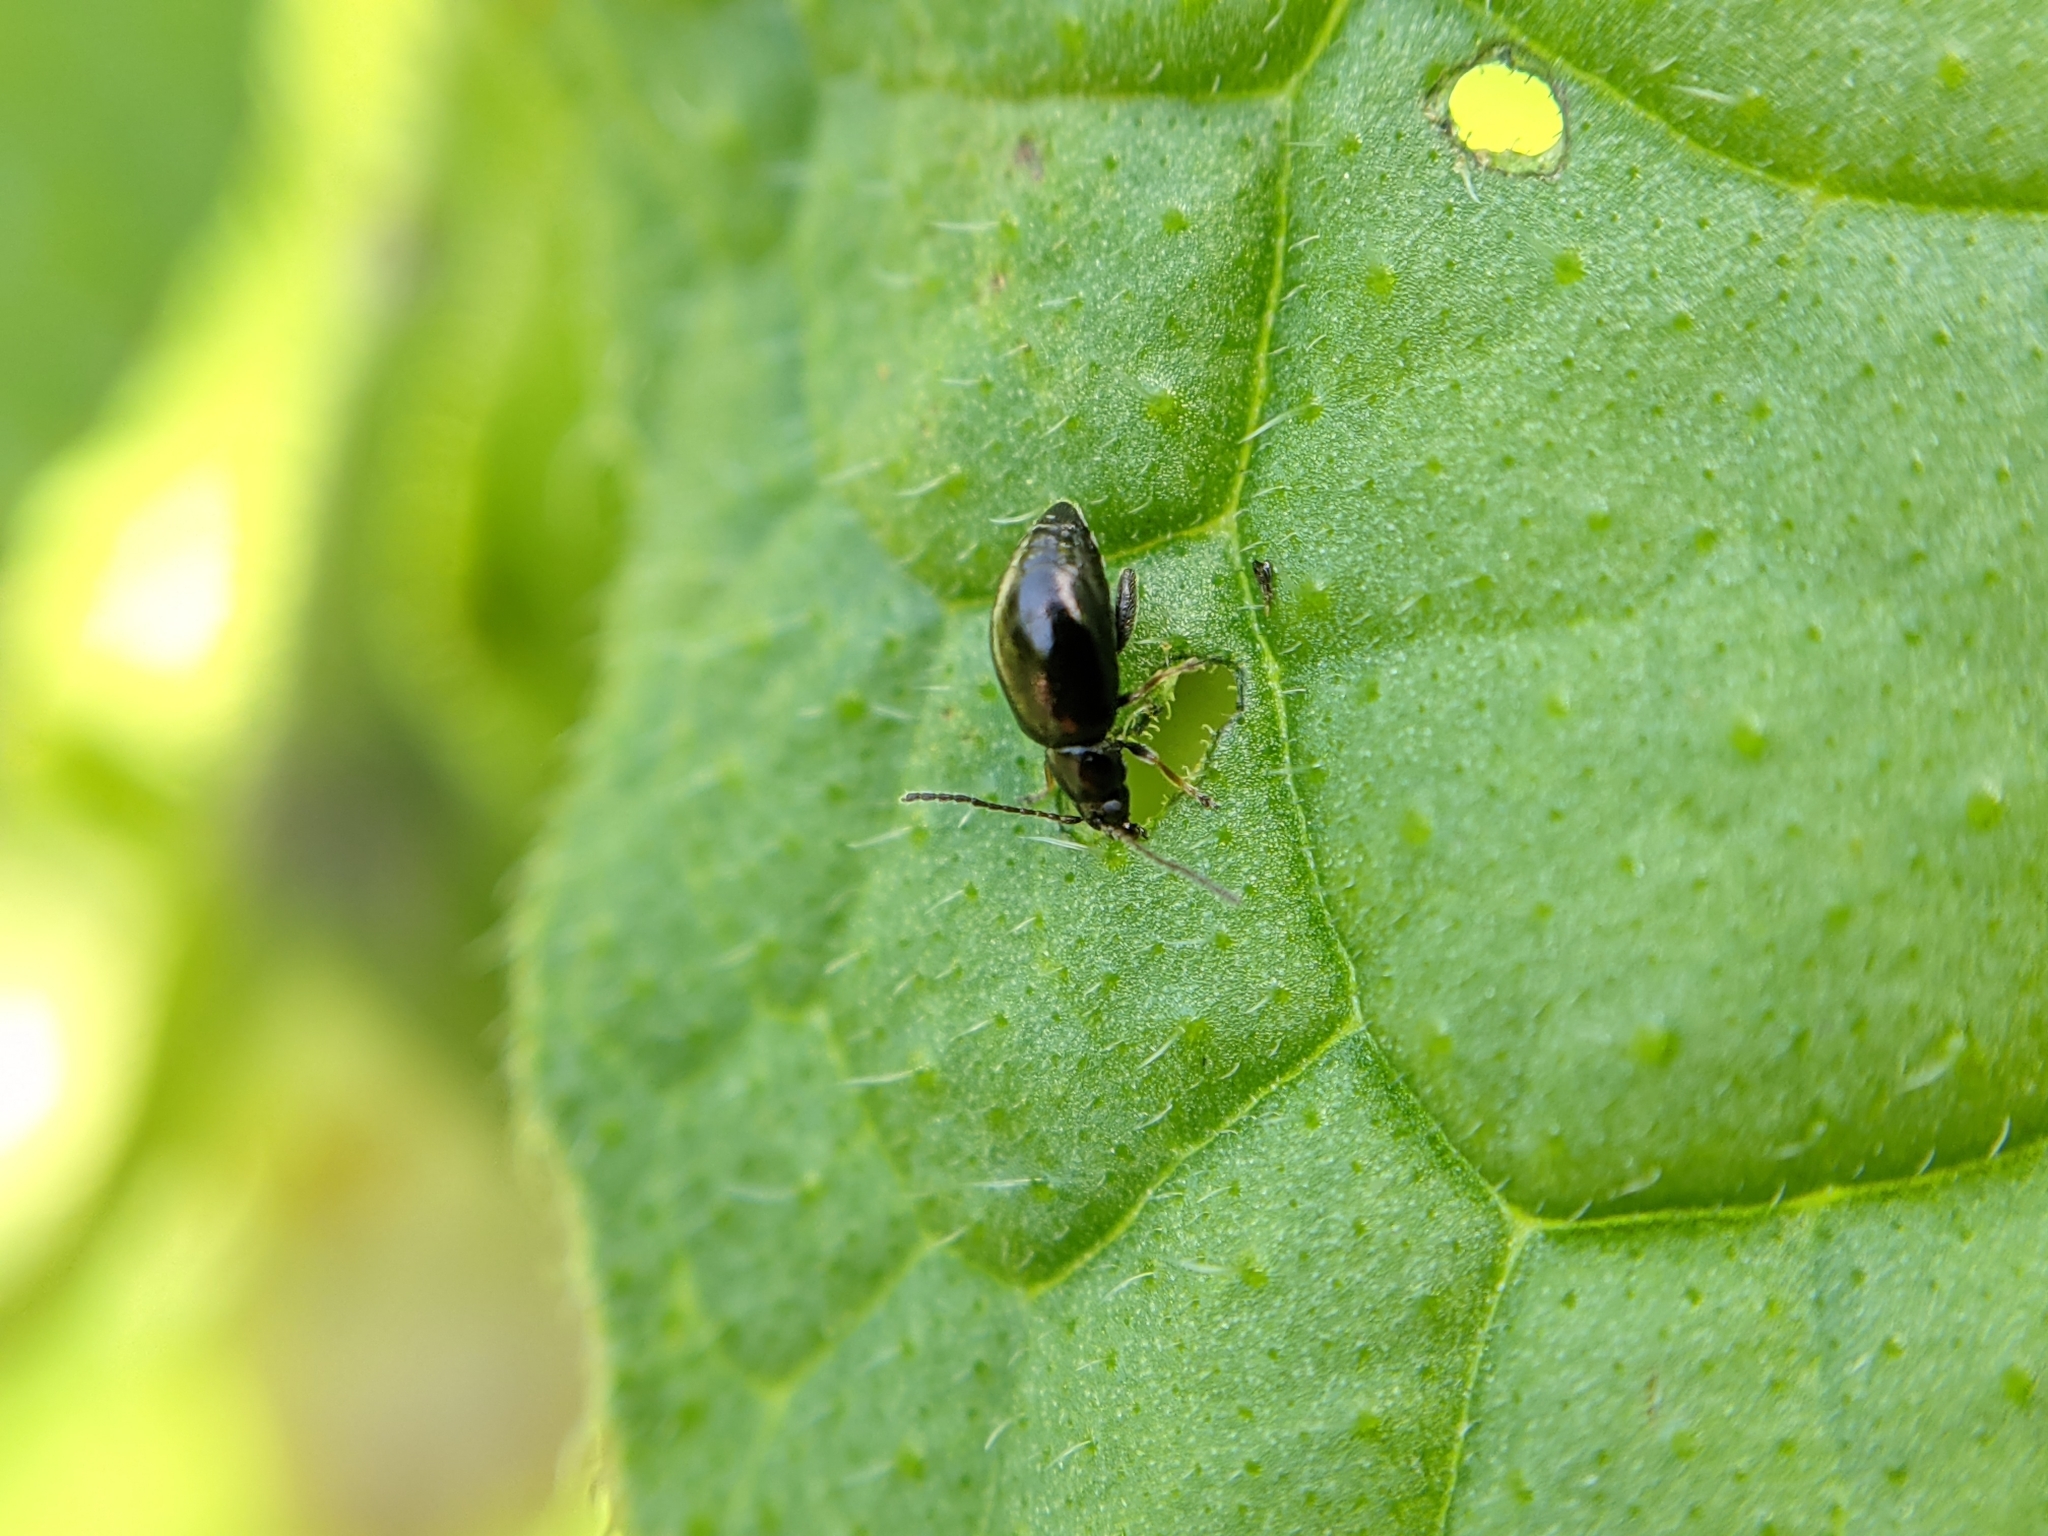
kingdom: Animalia
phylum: Arthropoda
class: Insecta
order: Coleoptera
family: Chrysomelidae
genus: Longitarsus
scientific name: Longitarsus anchusae
